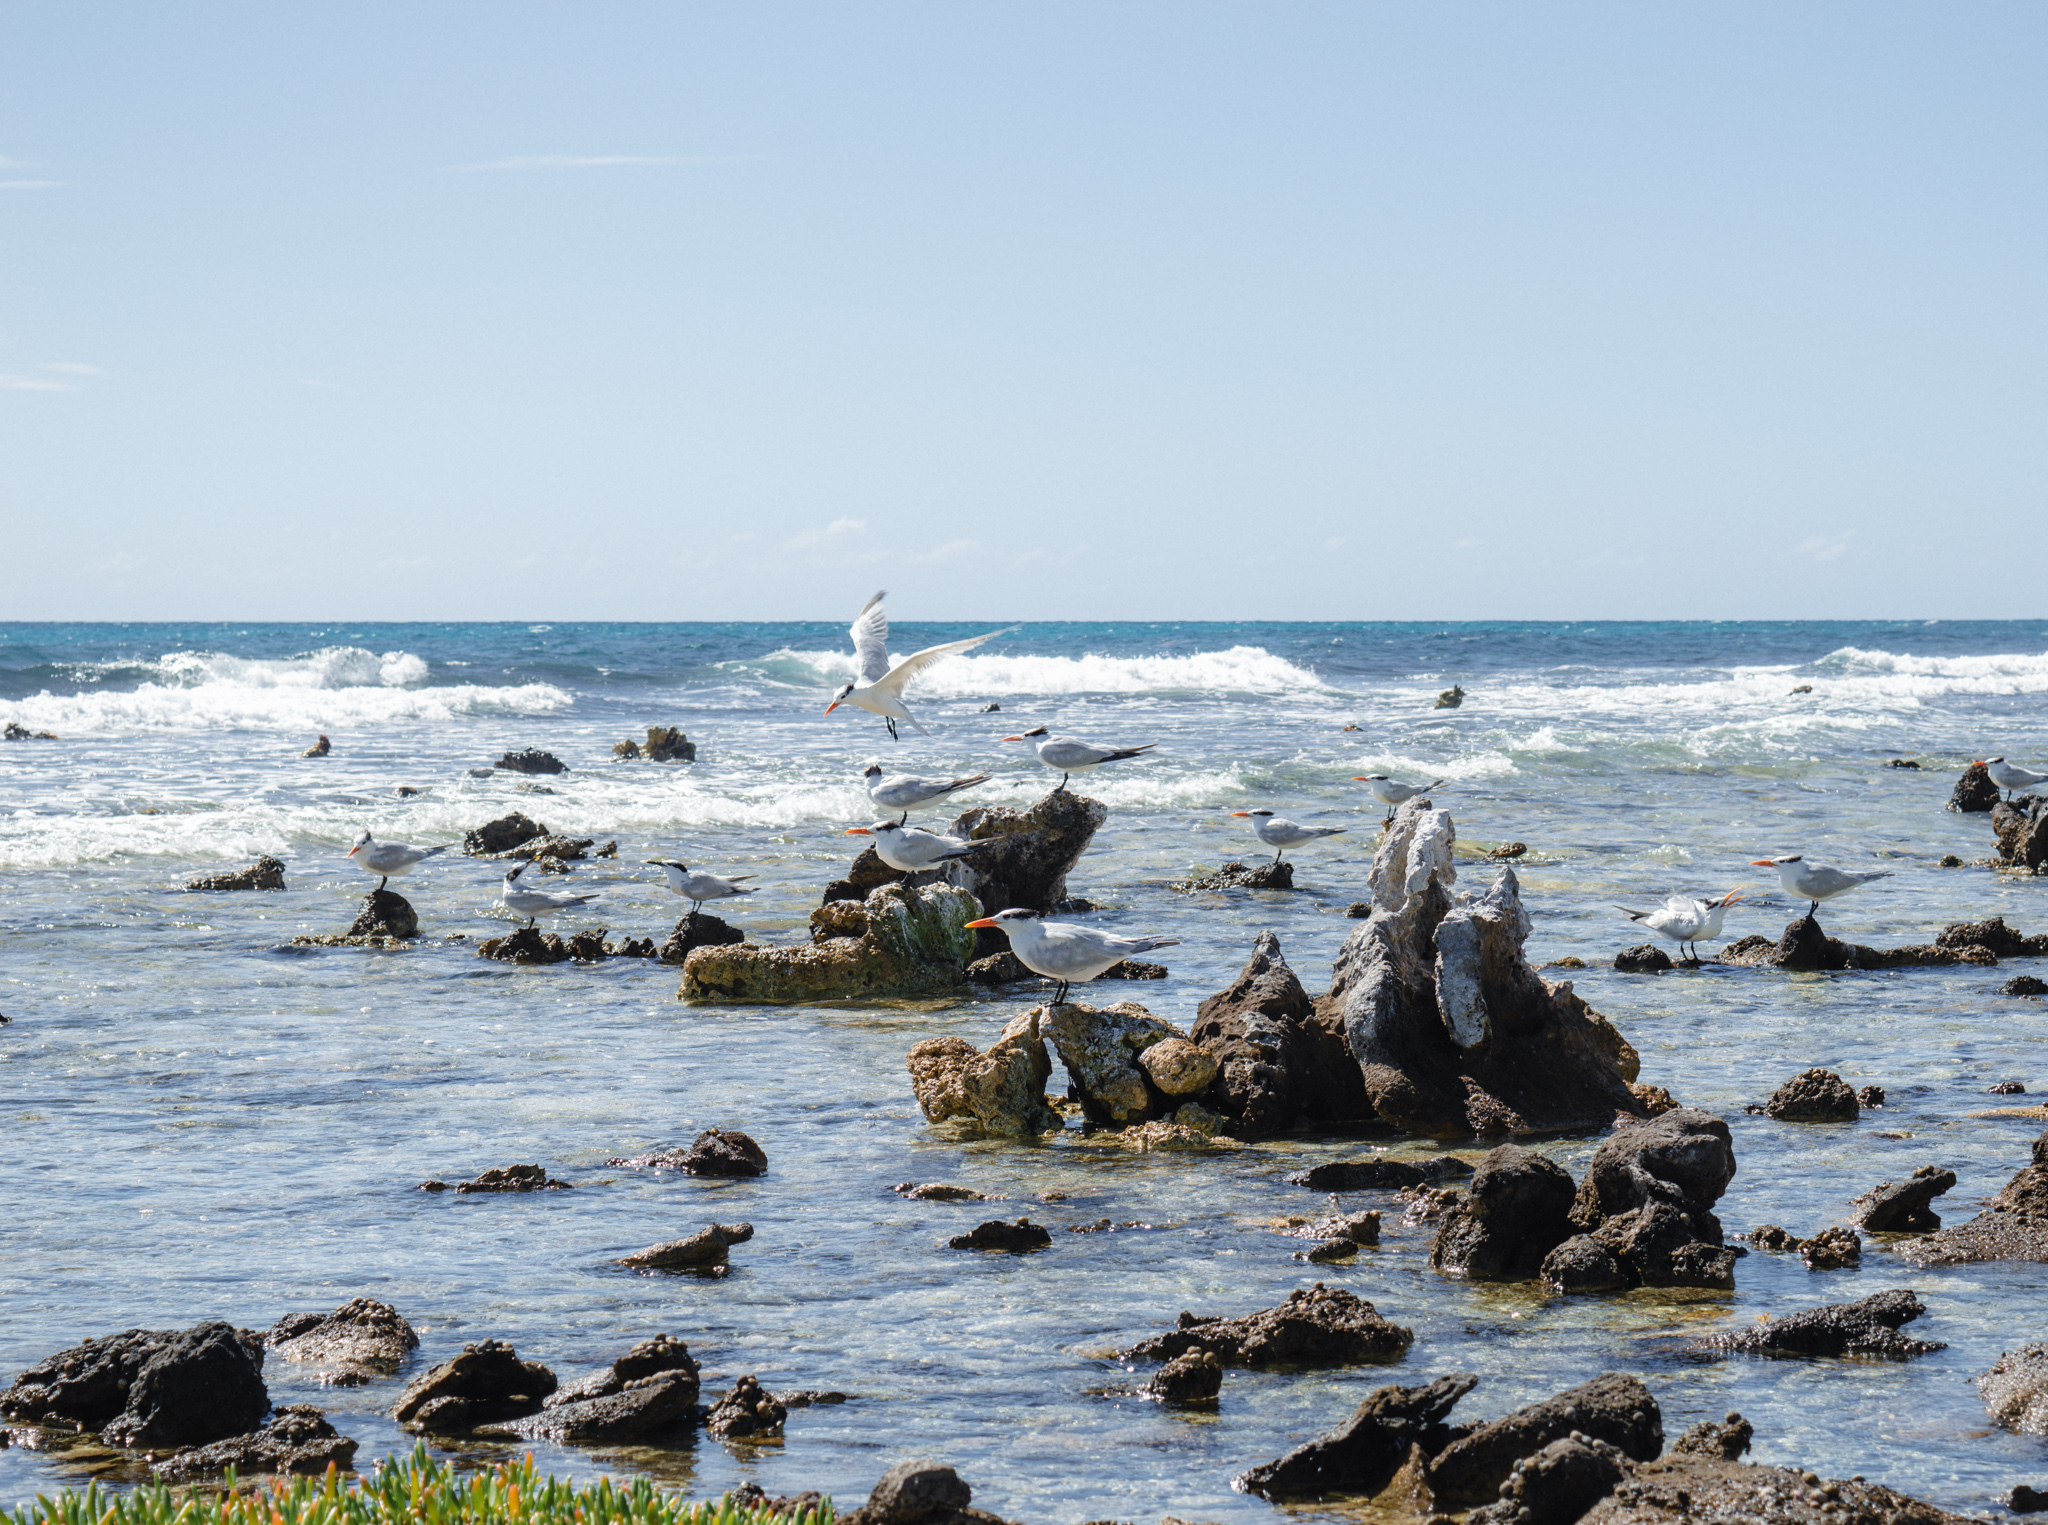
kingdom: Animalia
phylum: Chordata
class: Aves
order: Charadriiformes
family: Laridae
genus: Thalasseus
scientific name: Thalasseus maximus
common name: Royal tern
